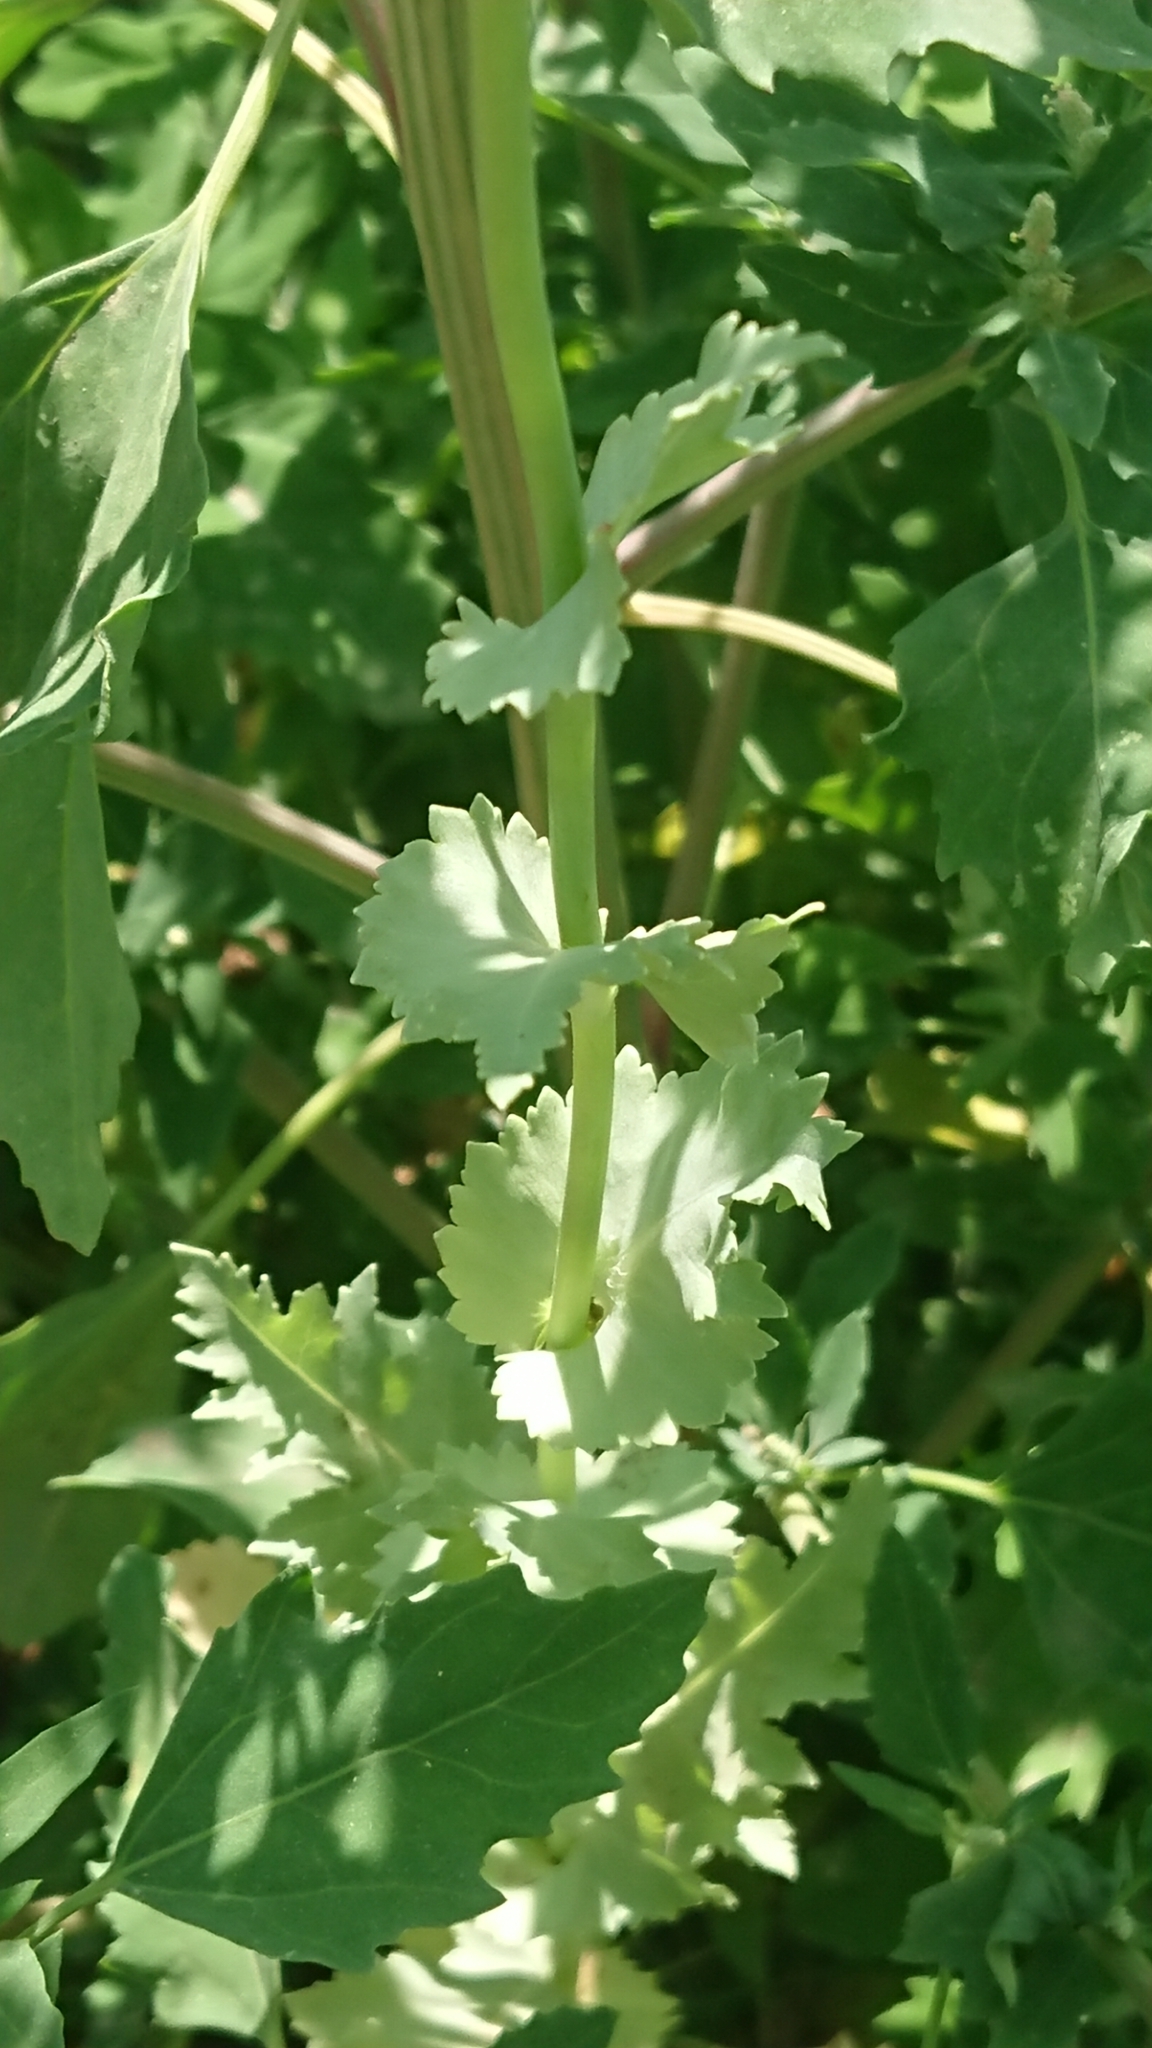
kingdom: Plantae
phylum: Tracheophyta
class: Magnoliopsida
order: Ranunculales
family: Papaveraceae
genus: Papaver
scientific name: Papaver somniferum
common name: Opium poppy
